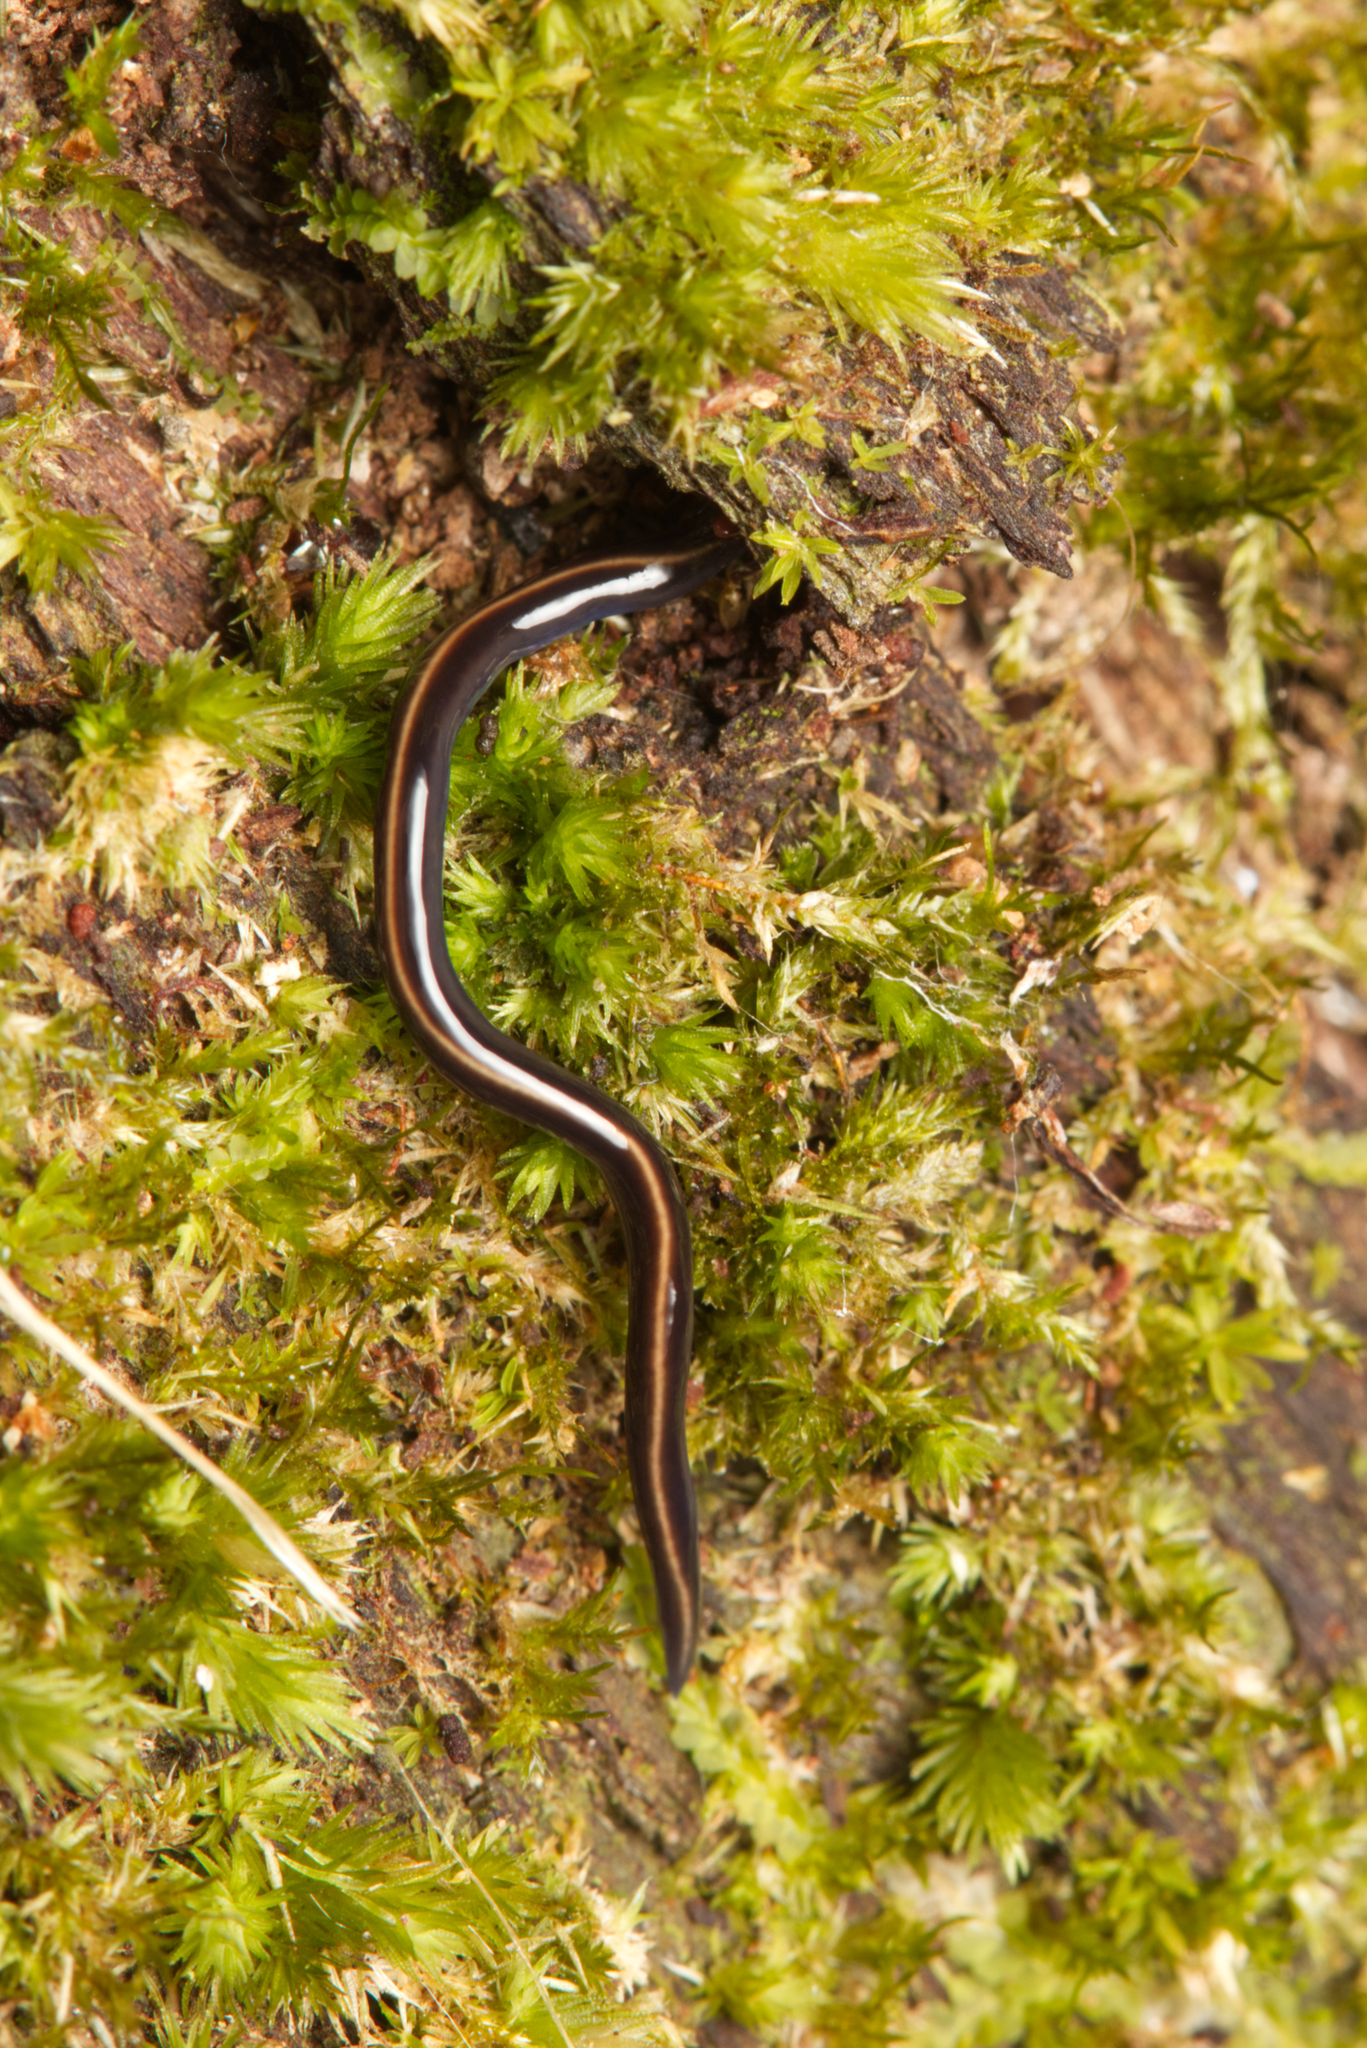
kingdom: Animalia
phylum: Platyhelminthes
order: Tricladida
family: Geoplanidae
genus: Caenoplana
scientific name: Caenoplana coerulea
